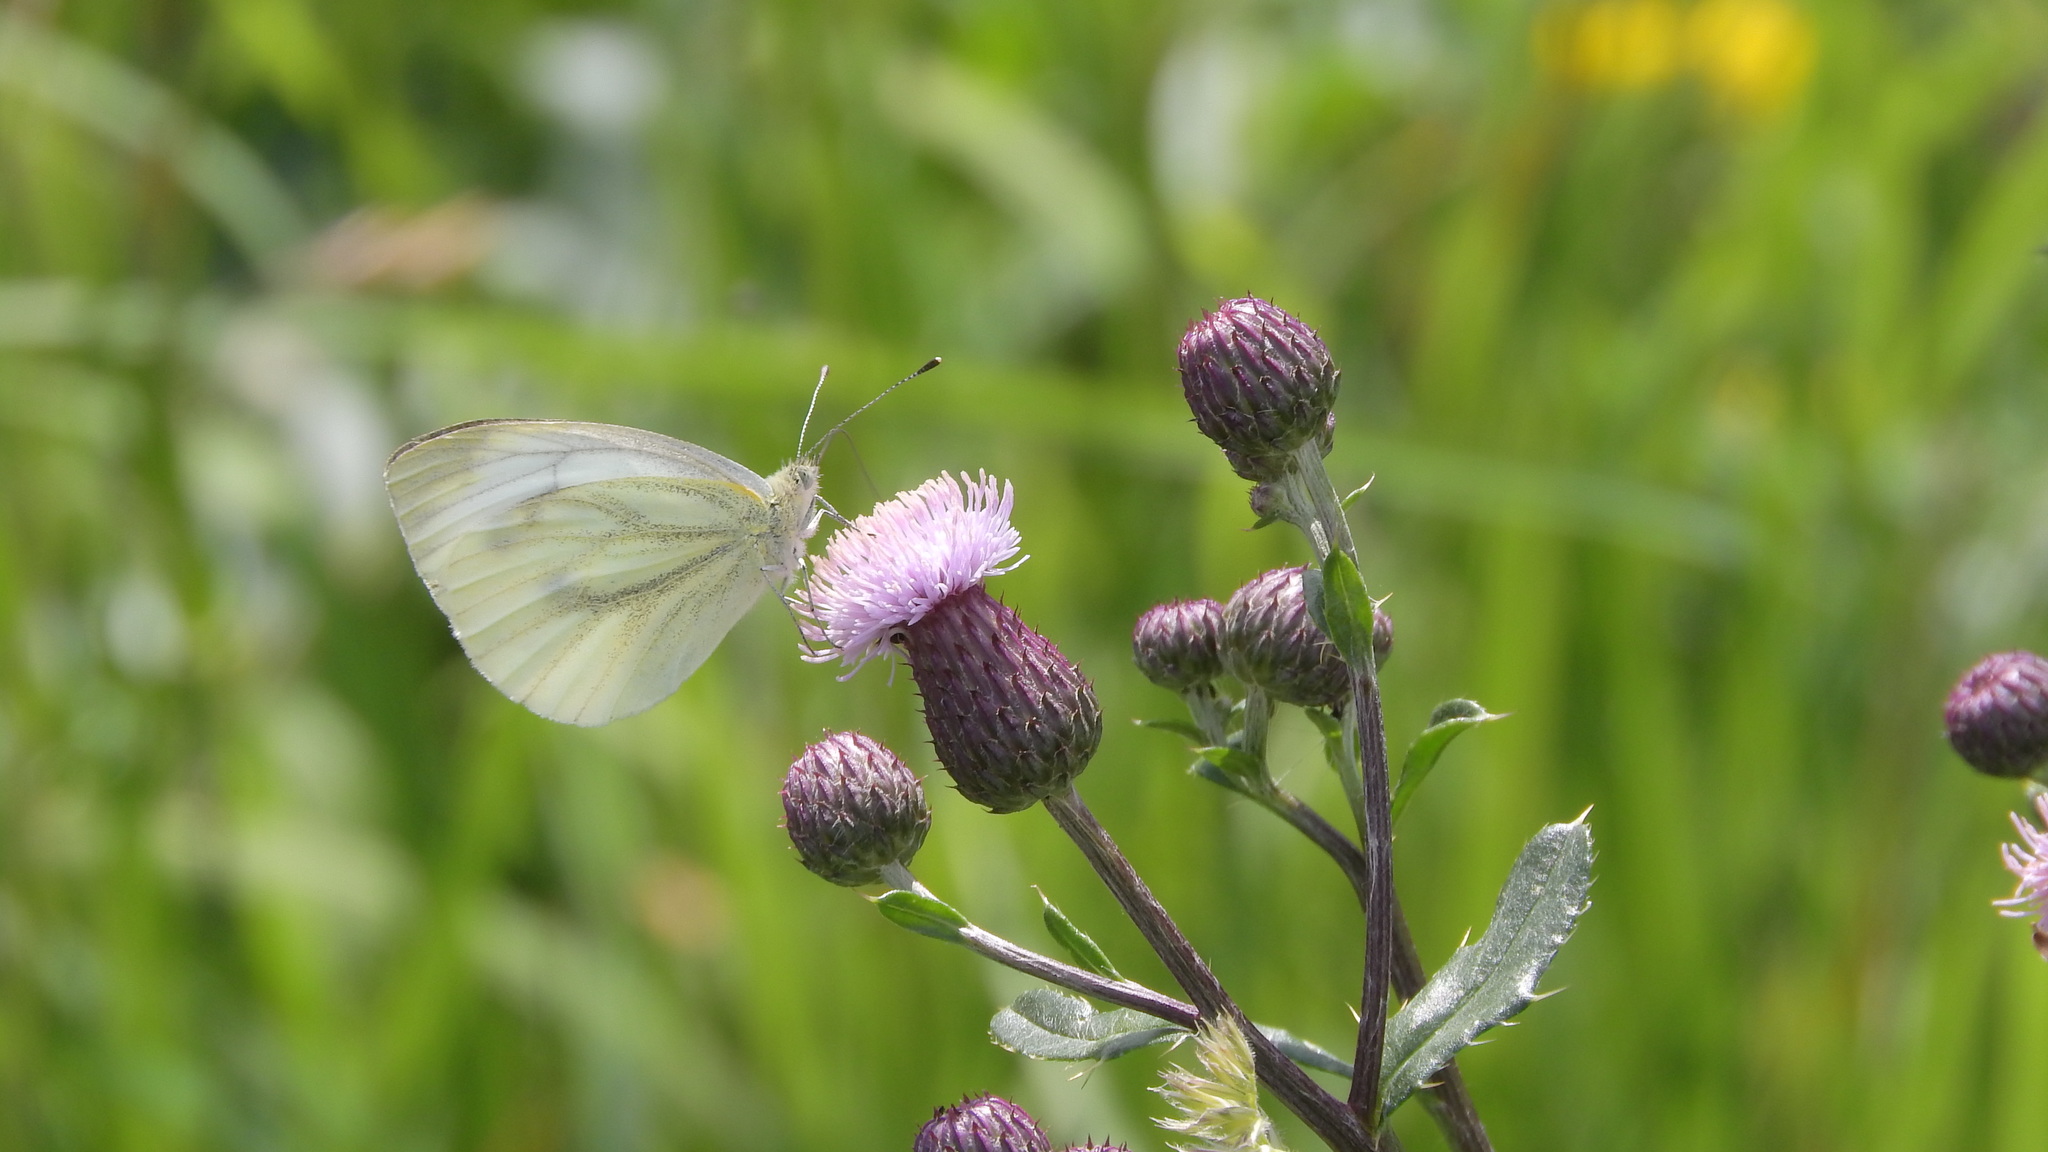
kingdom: Animalia
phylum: Arthropoda
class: Insecta
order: Lepidoptera
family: Pieridae
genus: Pieris
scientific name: Pieris napi
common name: Green-veined white
